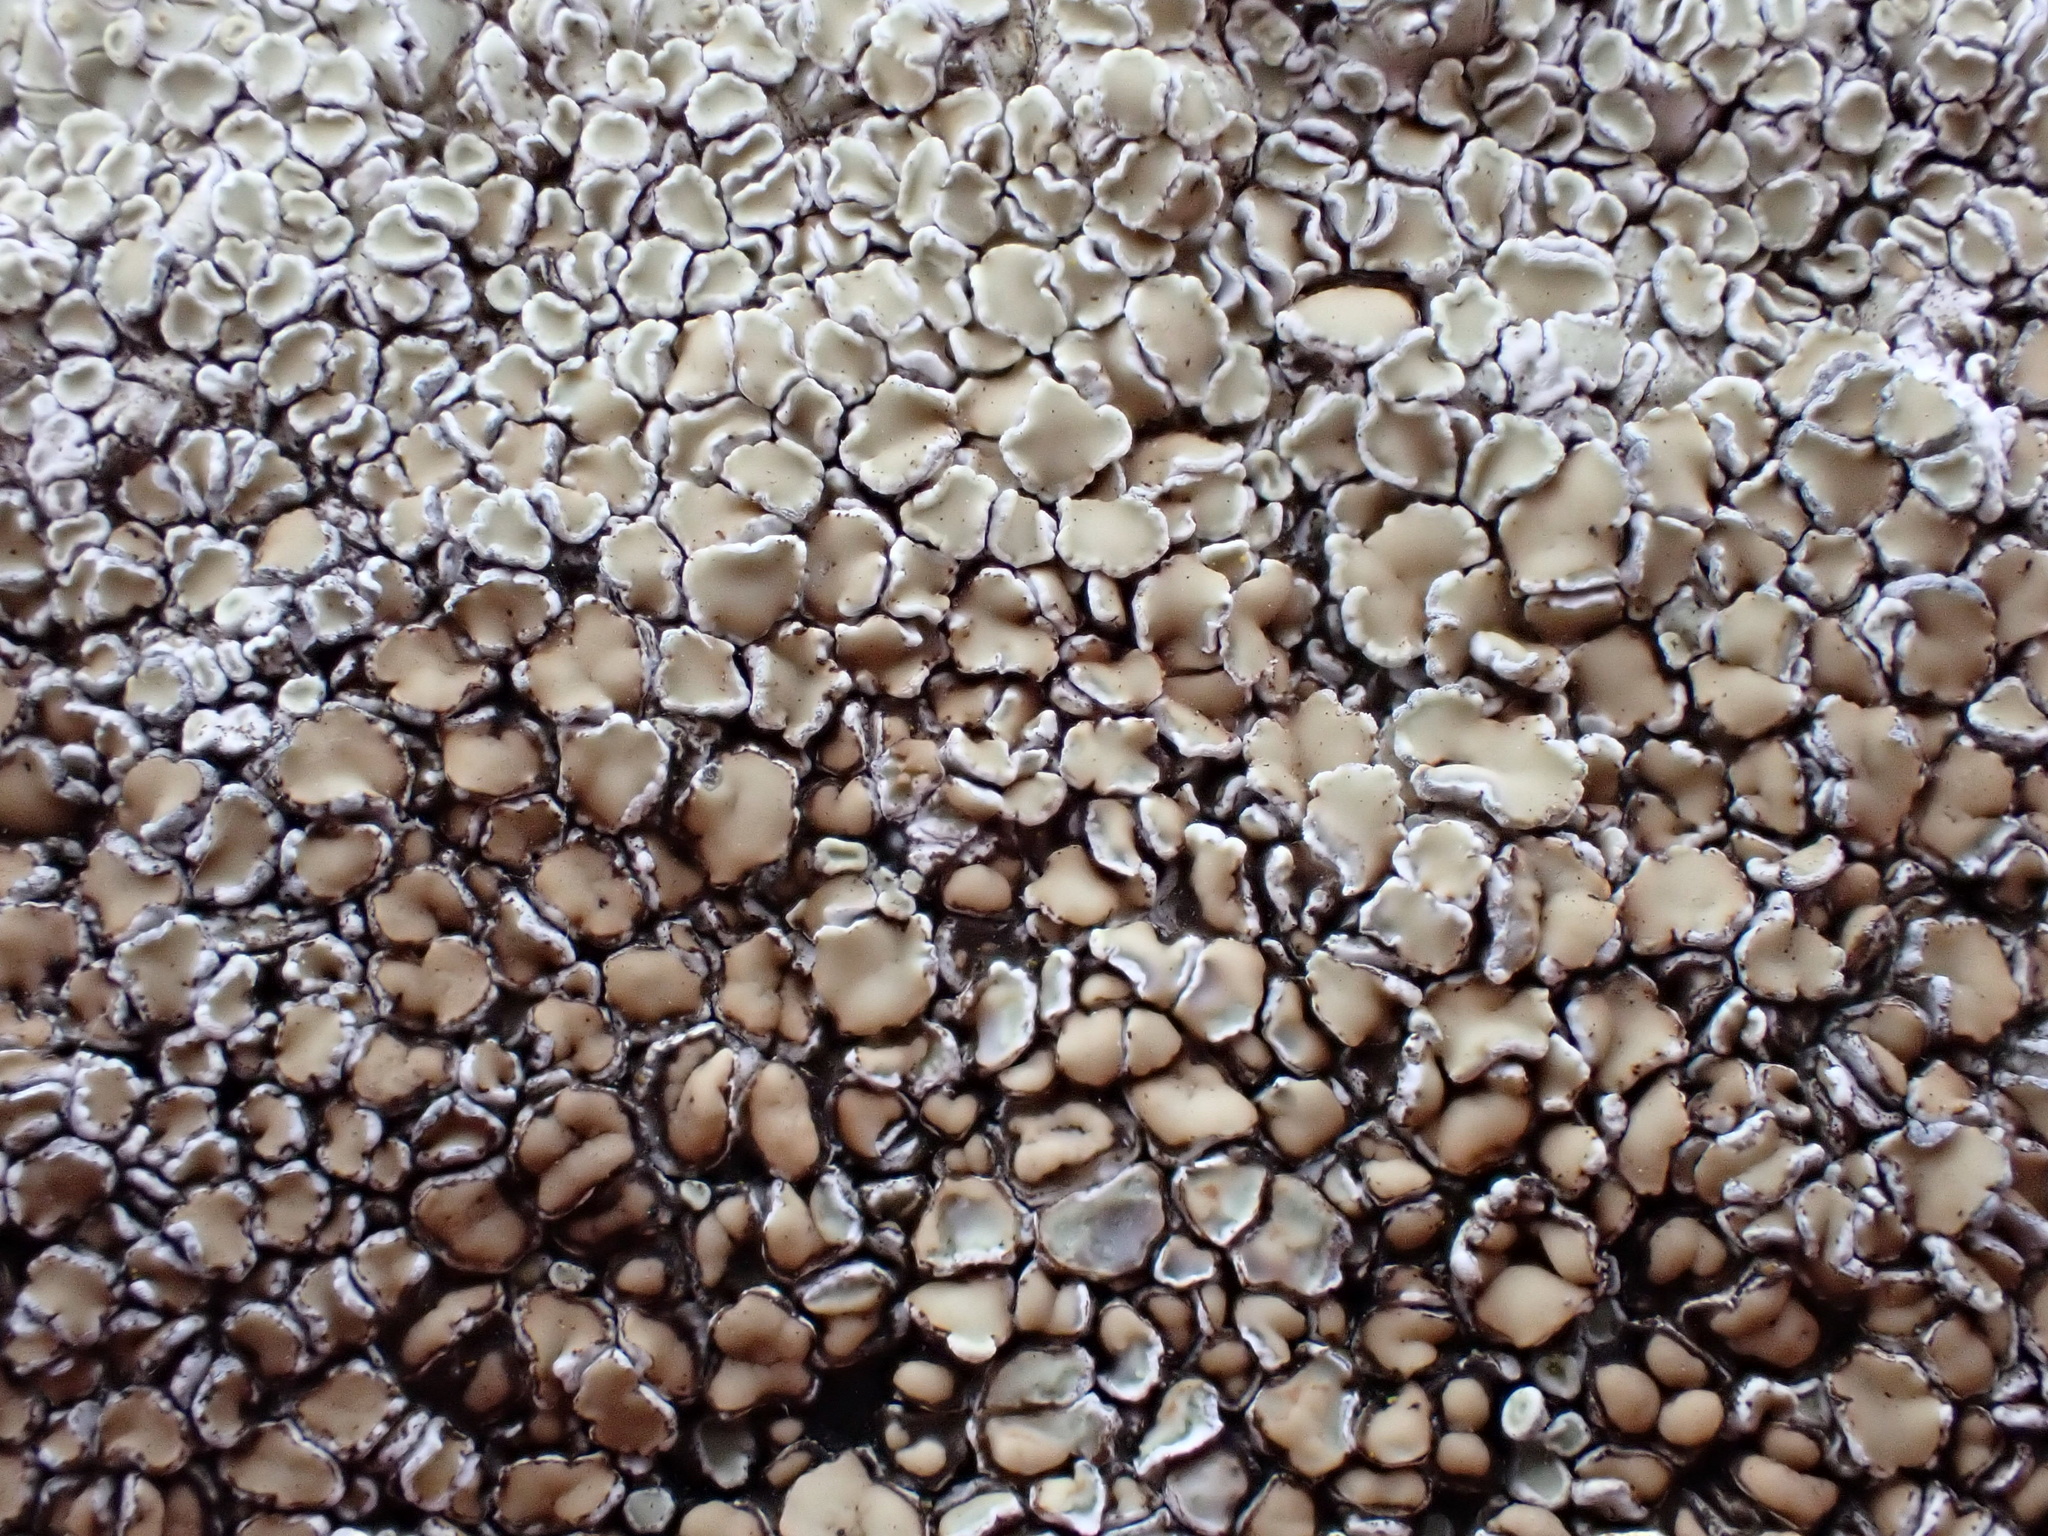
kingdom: Fungi
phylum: Ascomycota
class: Lecanoromycetes
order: Lecanorales
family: Lecanoraceae
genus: Protoparmeliopsis
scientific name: Protoparmeliopsis muralis
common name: Stonewall rim lichen
